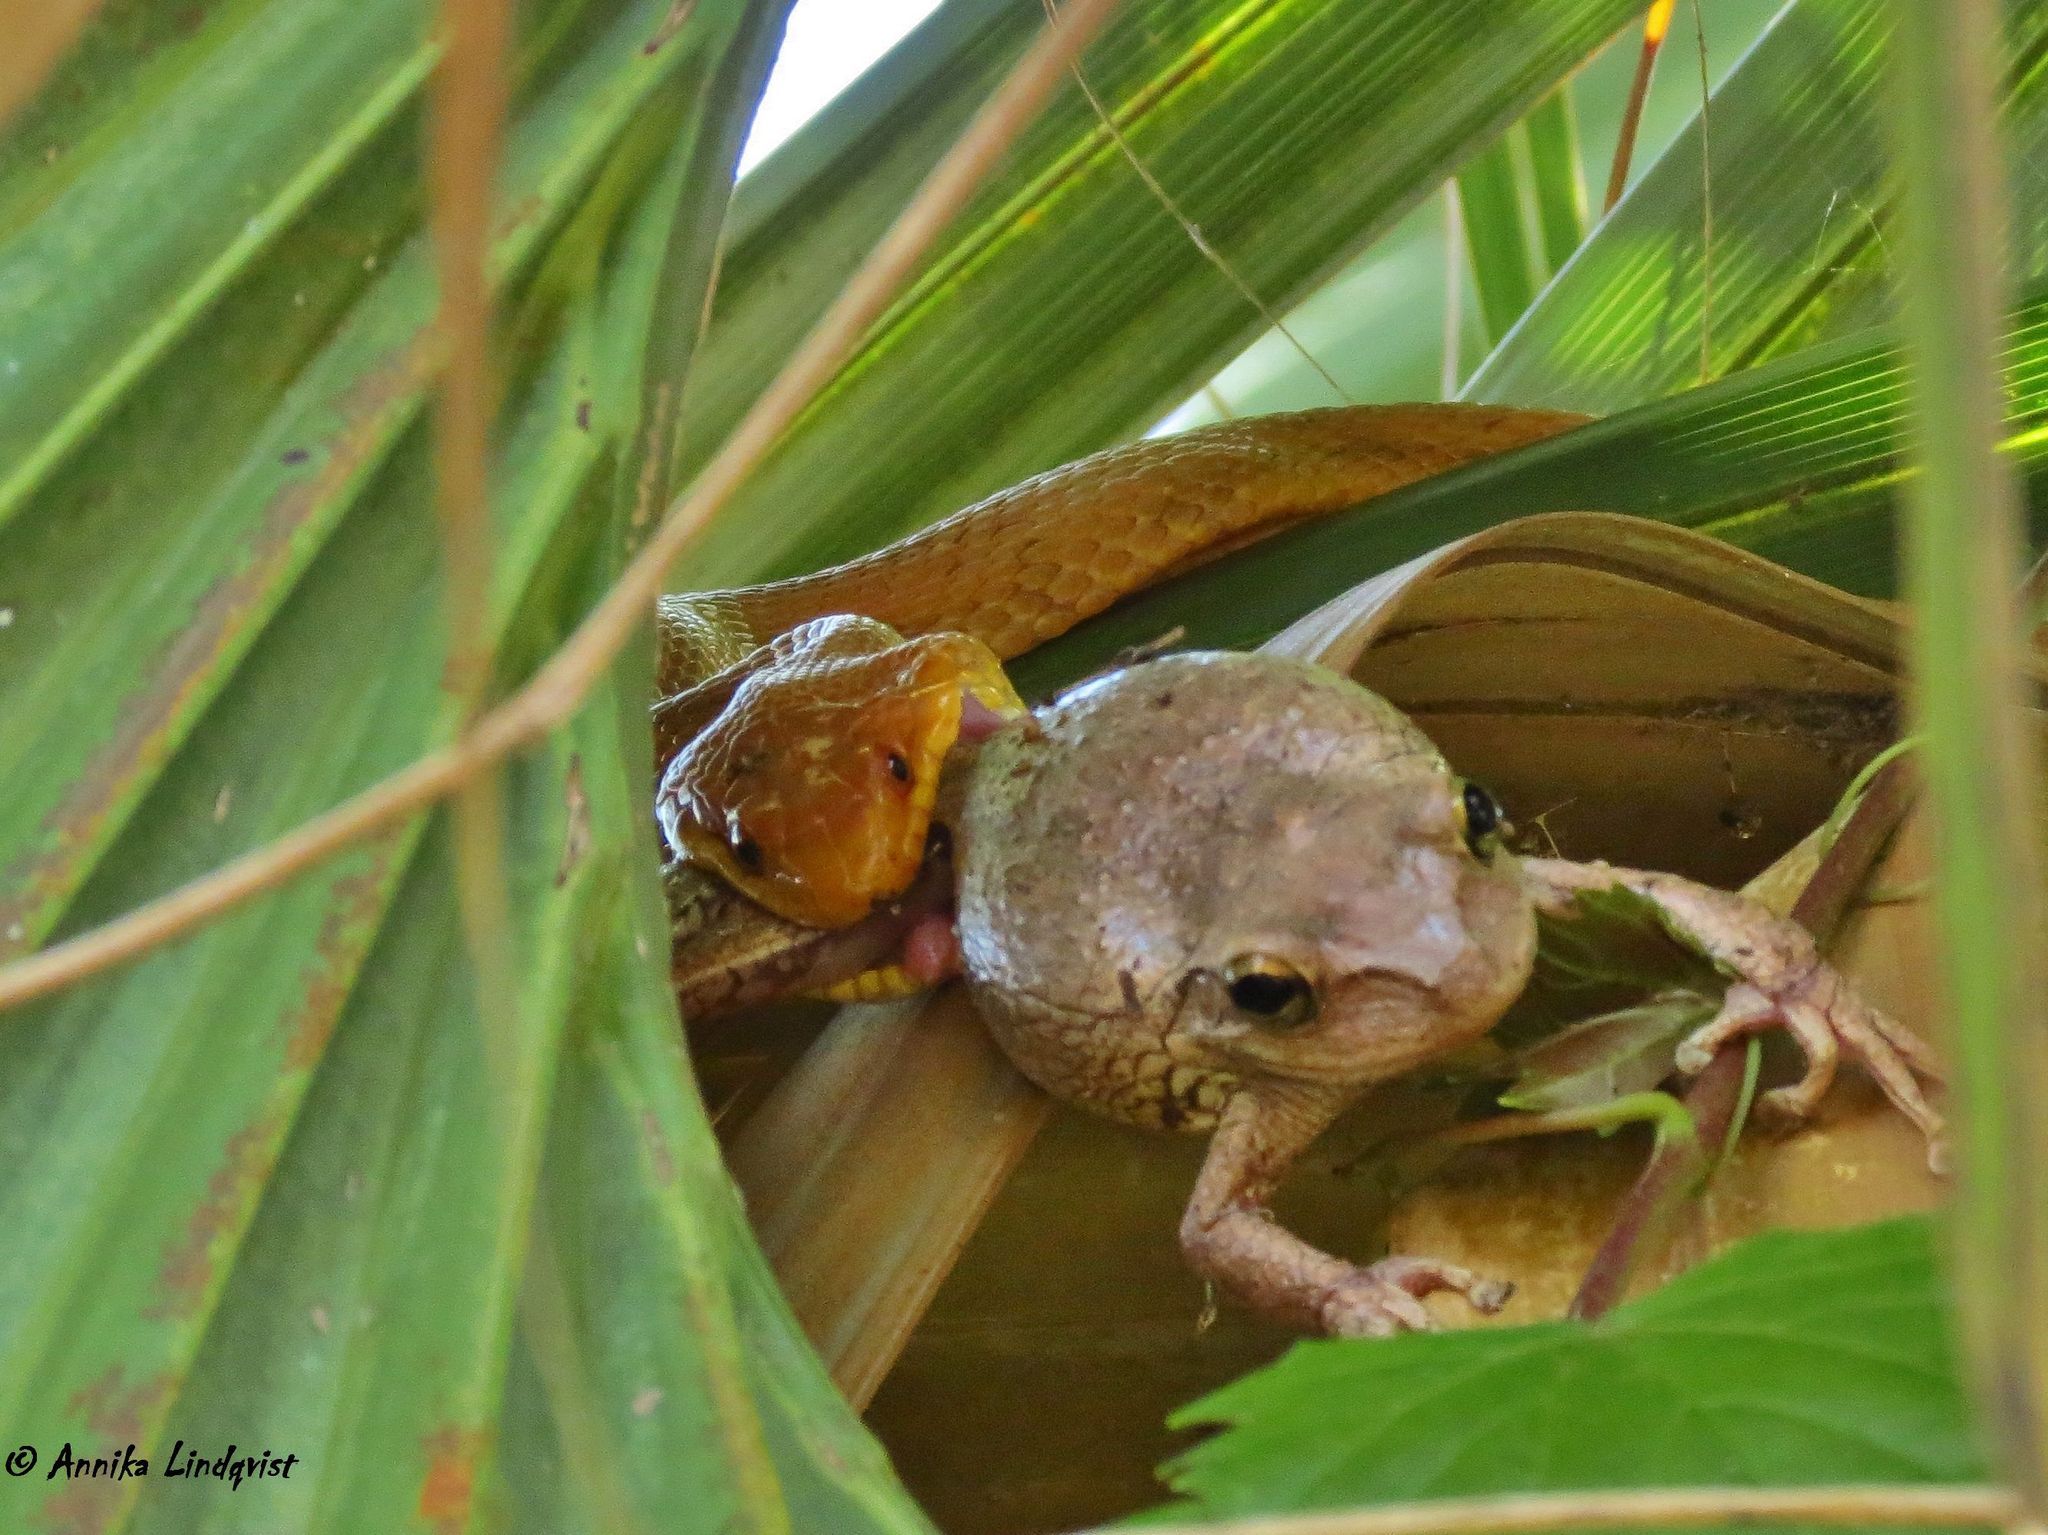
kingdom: Animalia
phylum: Chordata
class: Squamata
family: Colubridae
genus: Pantherophis
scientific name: Pantherophis alleghaniensis
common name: Eastern rat snake
